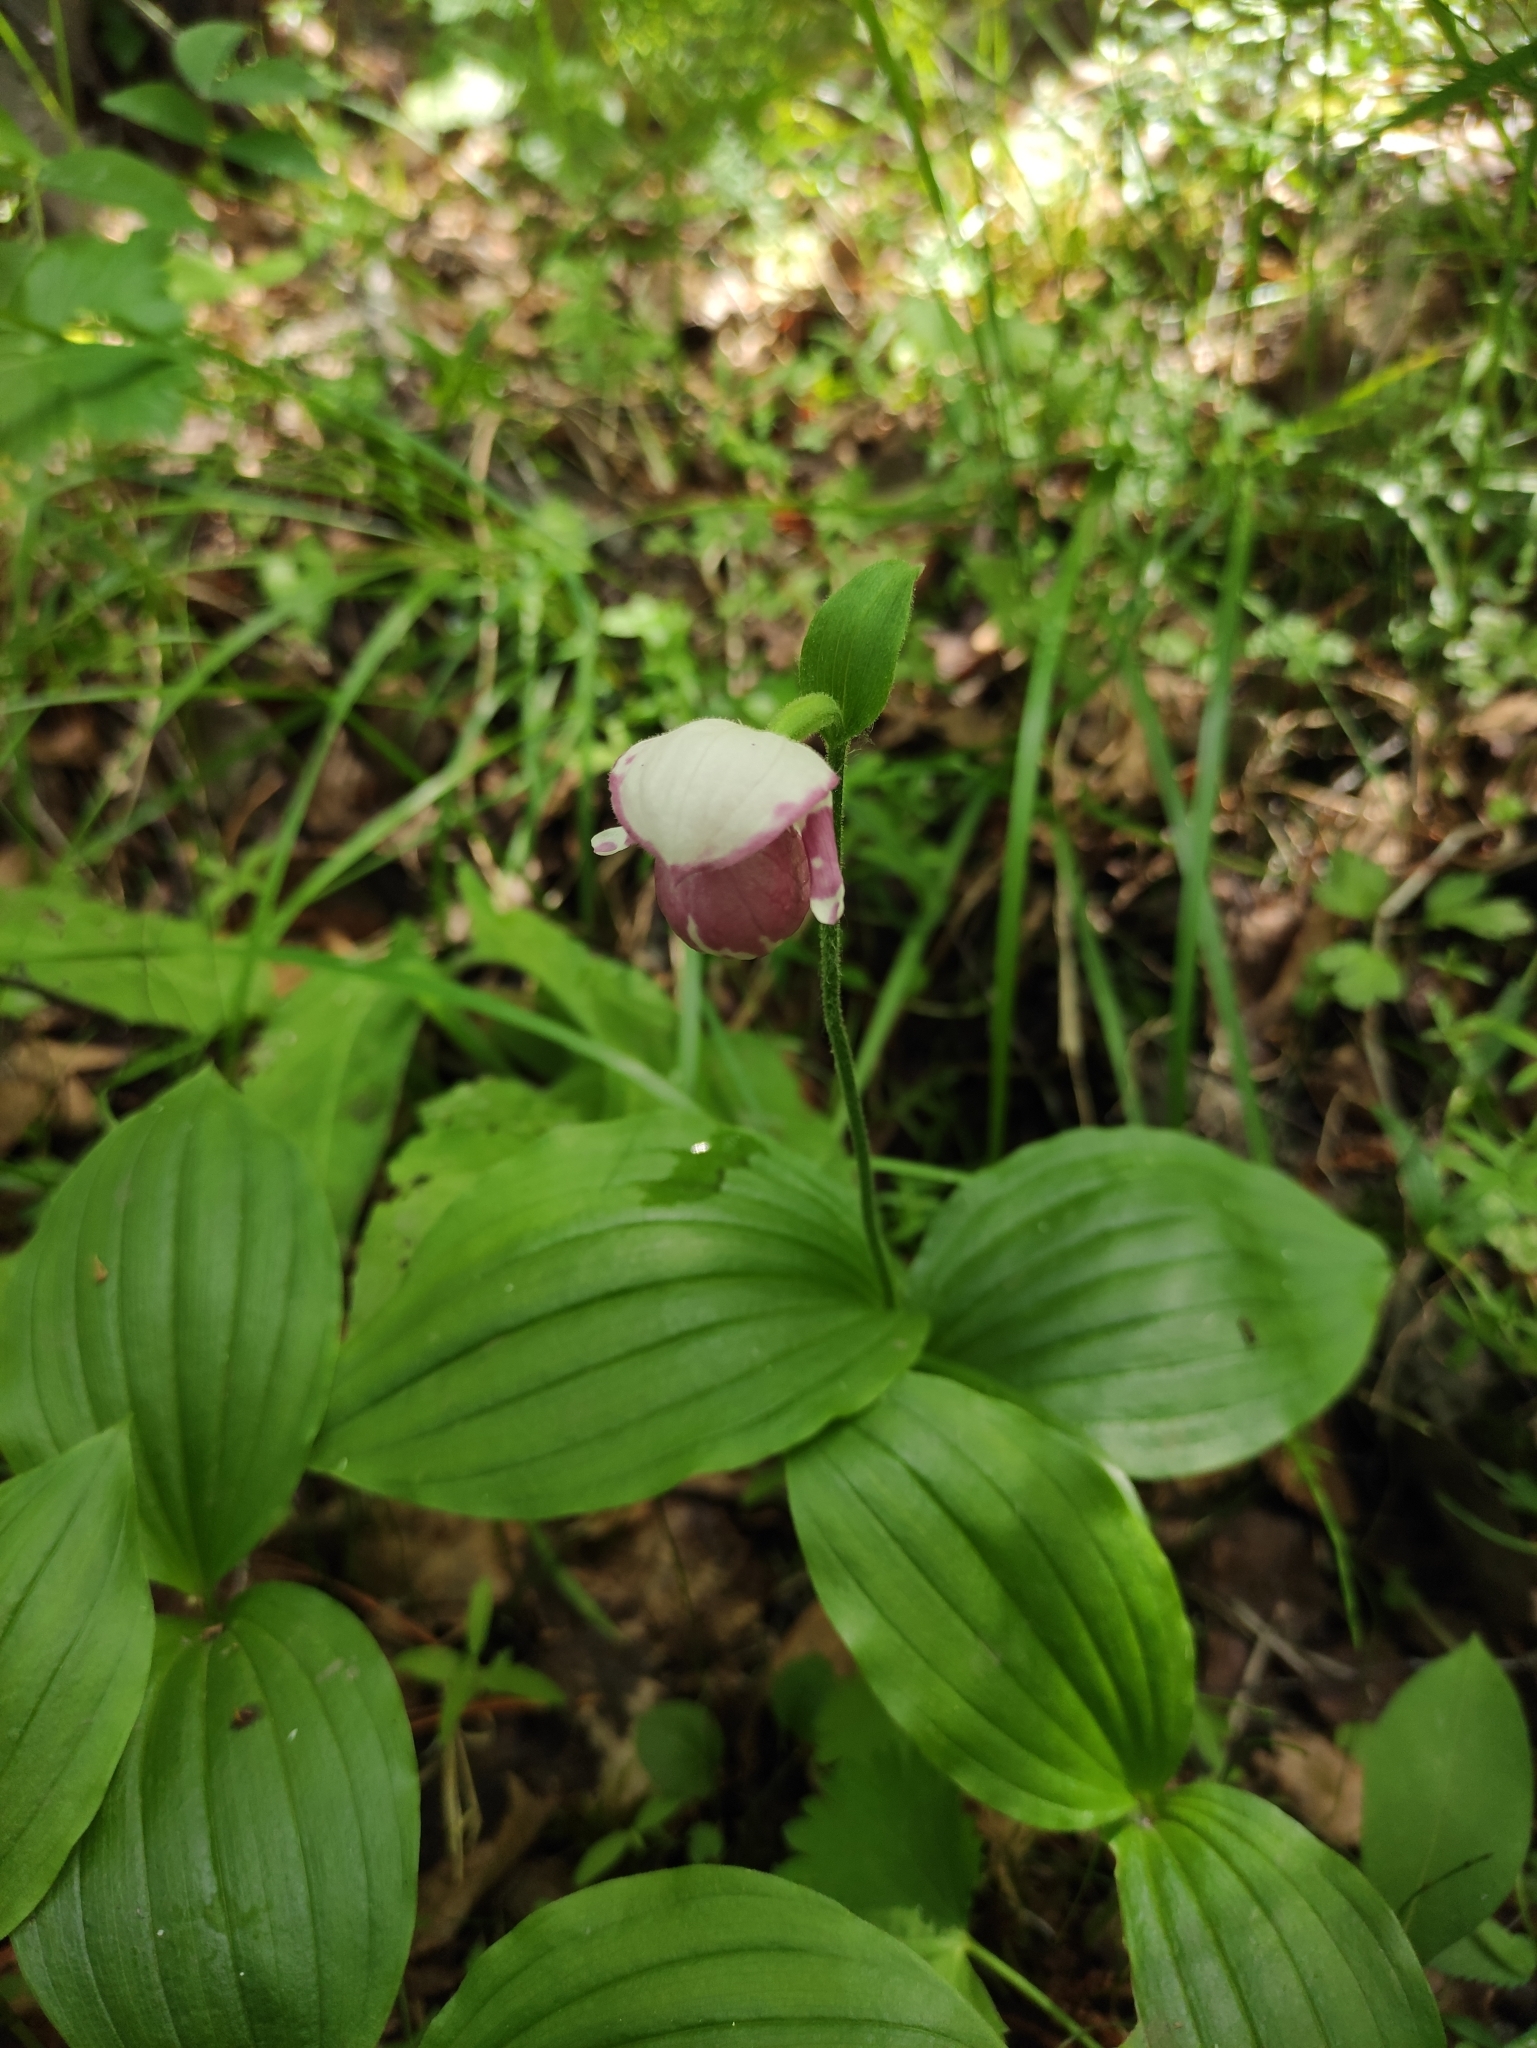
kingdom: Plantae
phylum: Tracheophyta
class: Liliopsida
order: Asparagales
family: Orchidaceae
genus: Cypripedium
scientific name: Cypripedium guttatum
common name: Pink lady slipper
